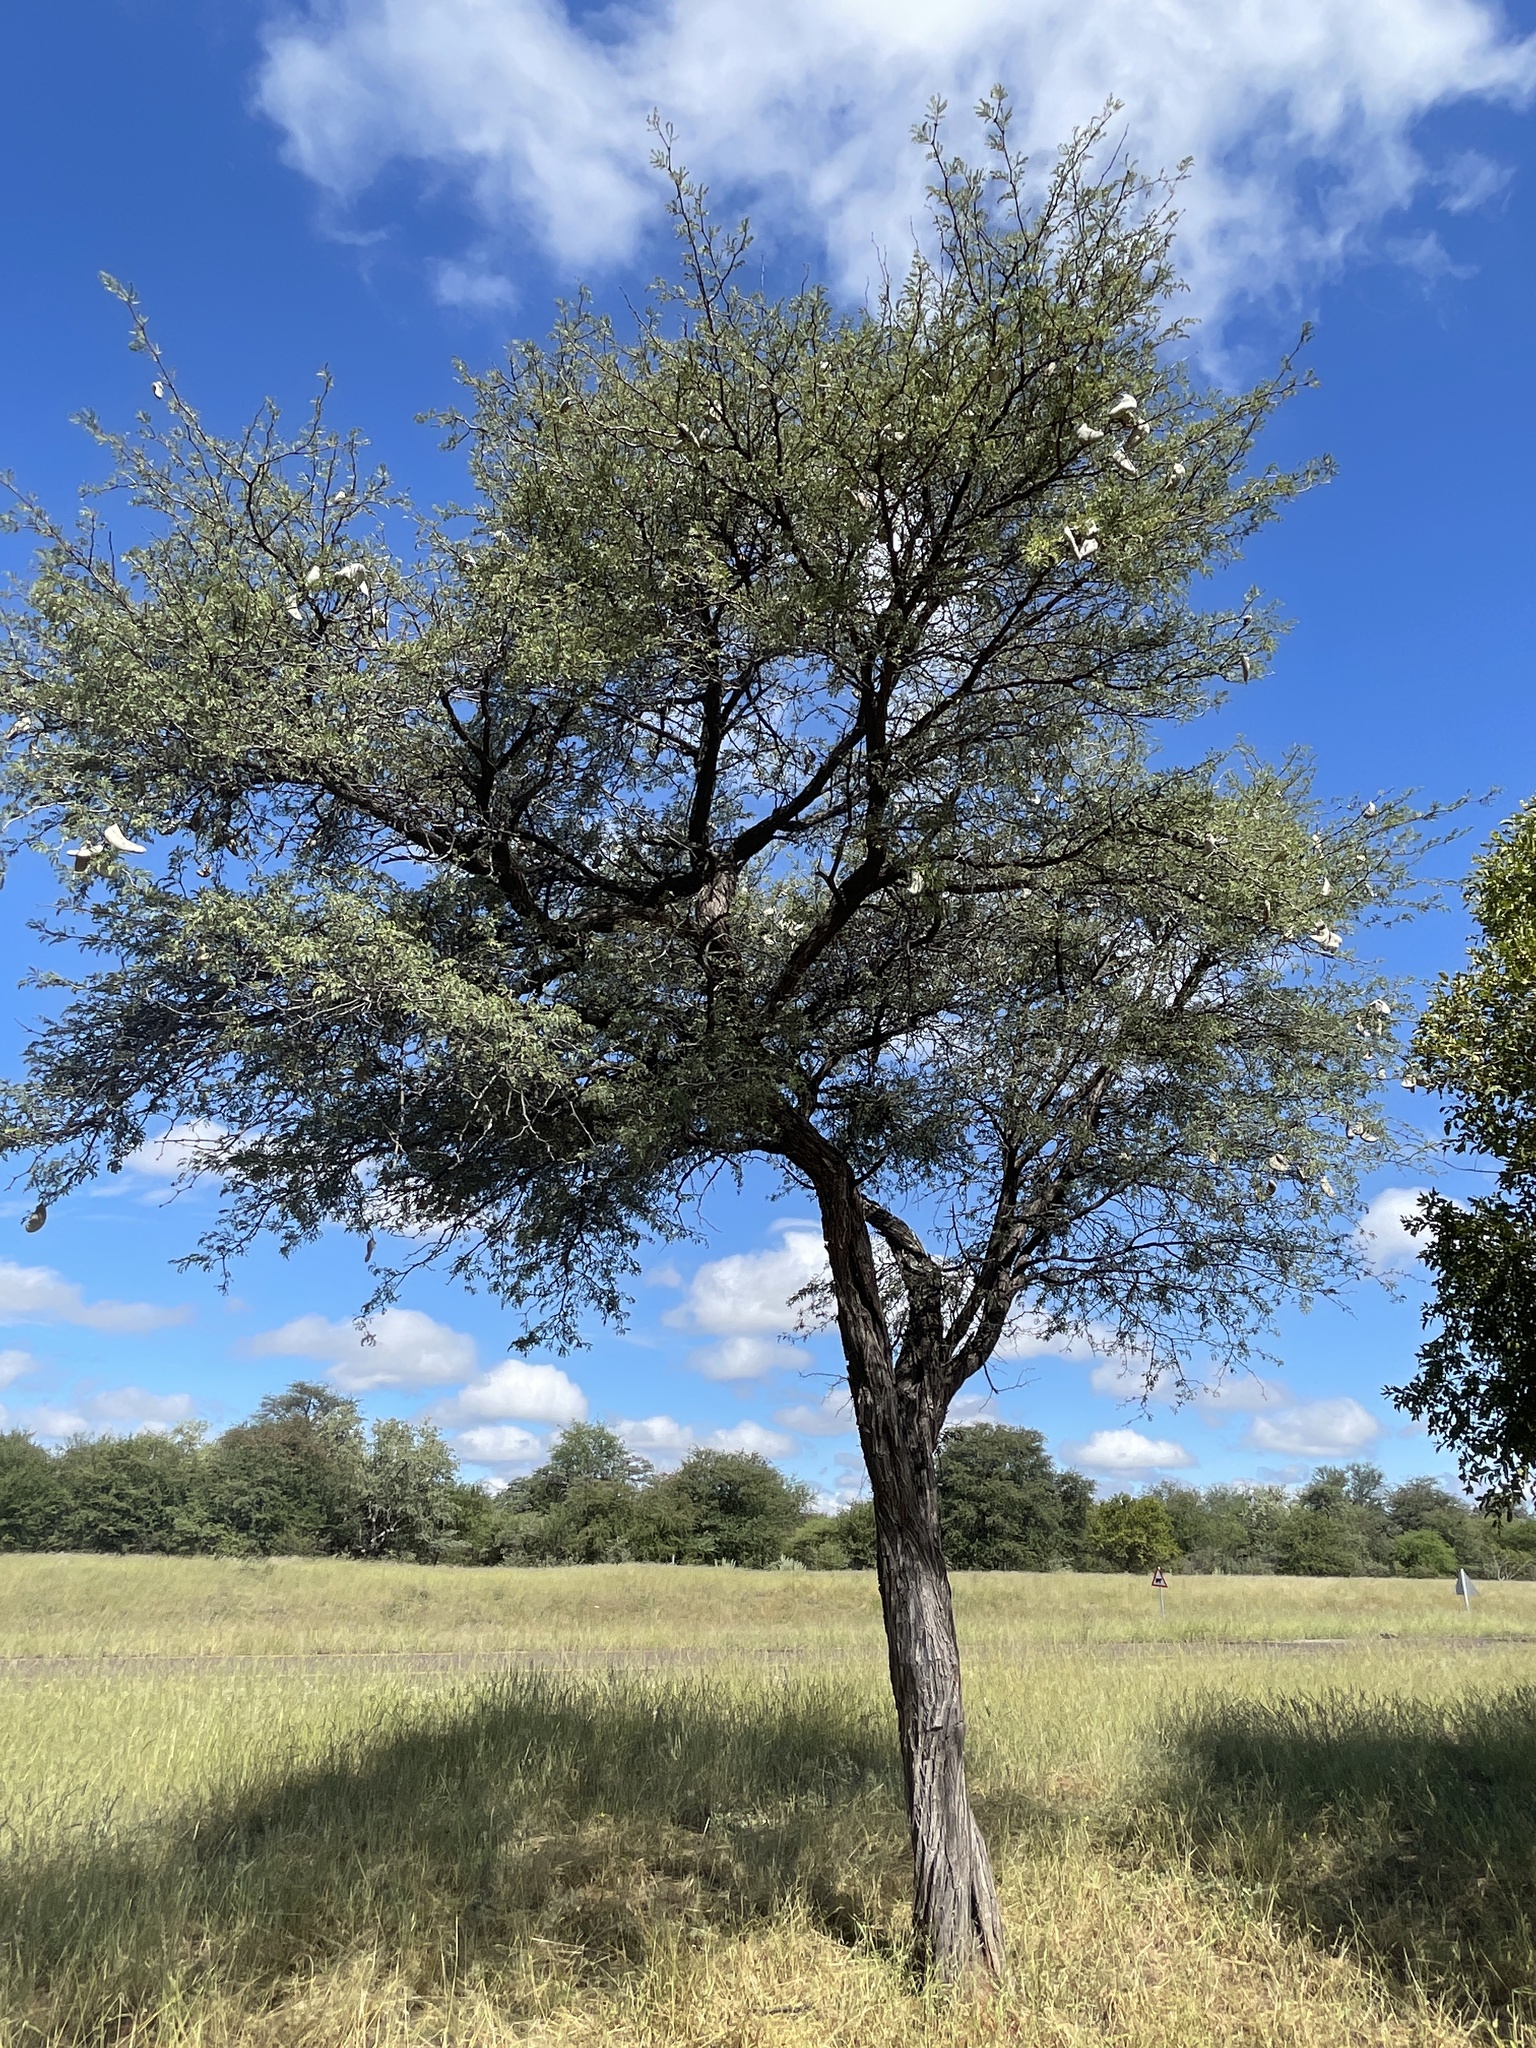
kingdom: Plantae
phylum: Tracheophyta
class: Magnoliopsida
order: Fabales
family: Fabaceae
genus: Vachellia
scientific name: Vachellia erioloba
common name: Camel thorn
